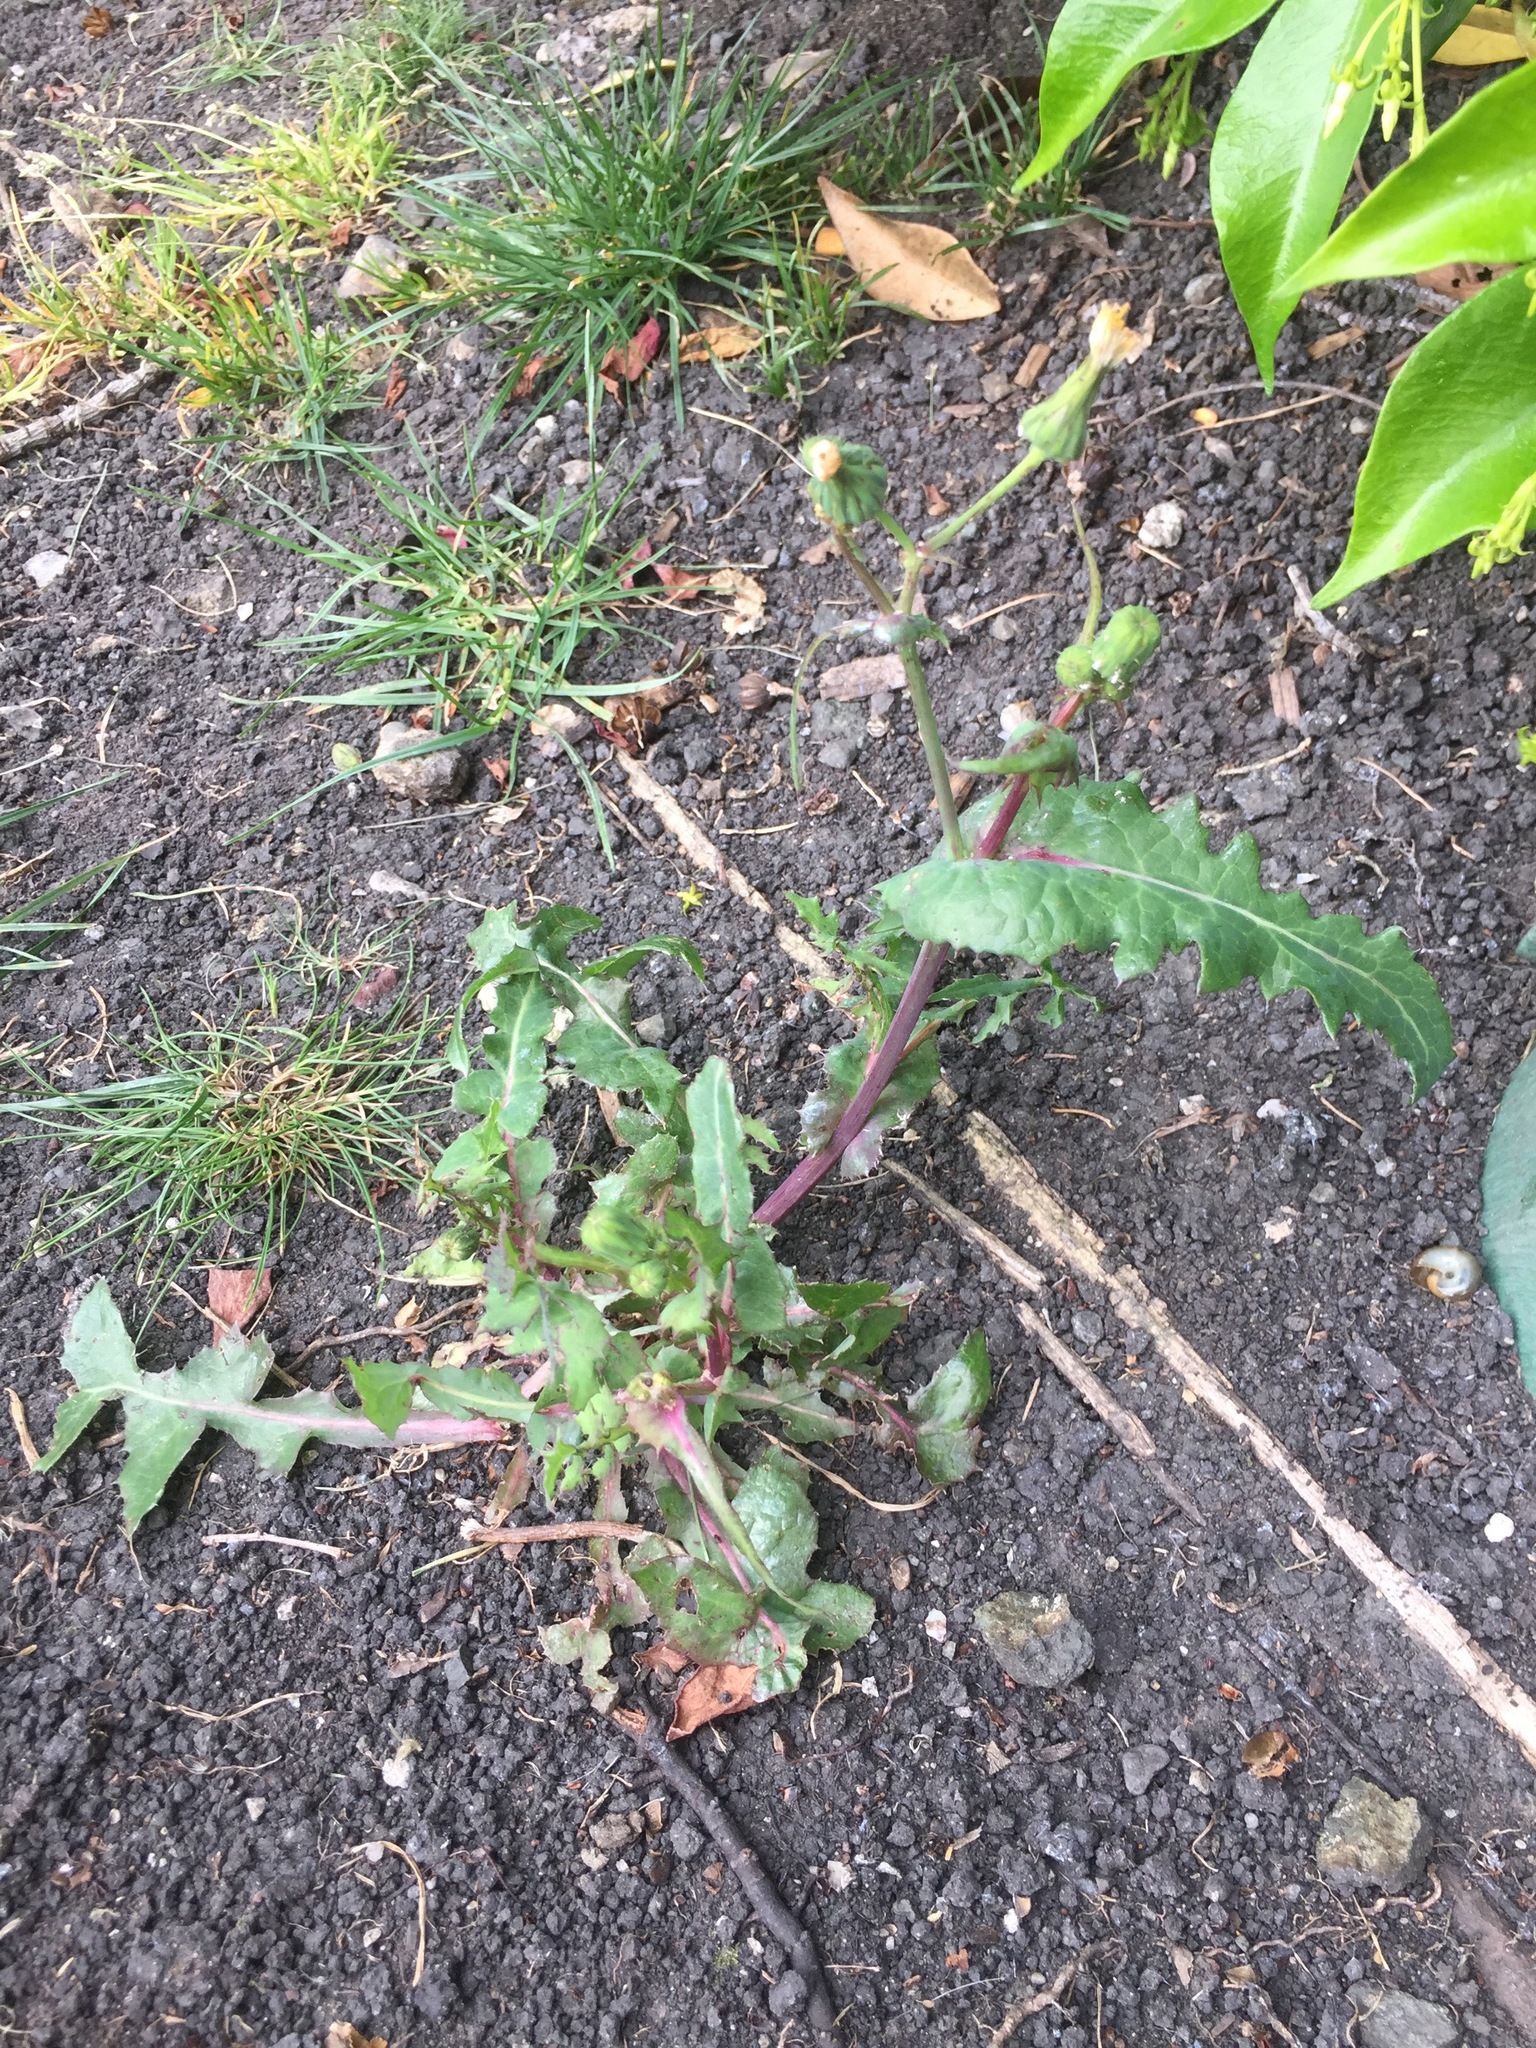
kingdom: Plantae
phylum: Tracheophyta
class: Magnoliopsida
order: Asterales
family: Asteraceae
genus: Sonchus
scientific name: Sonchus oleraceus
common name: Common sowthistle
